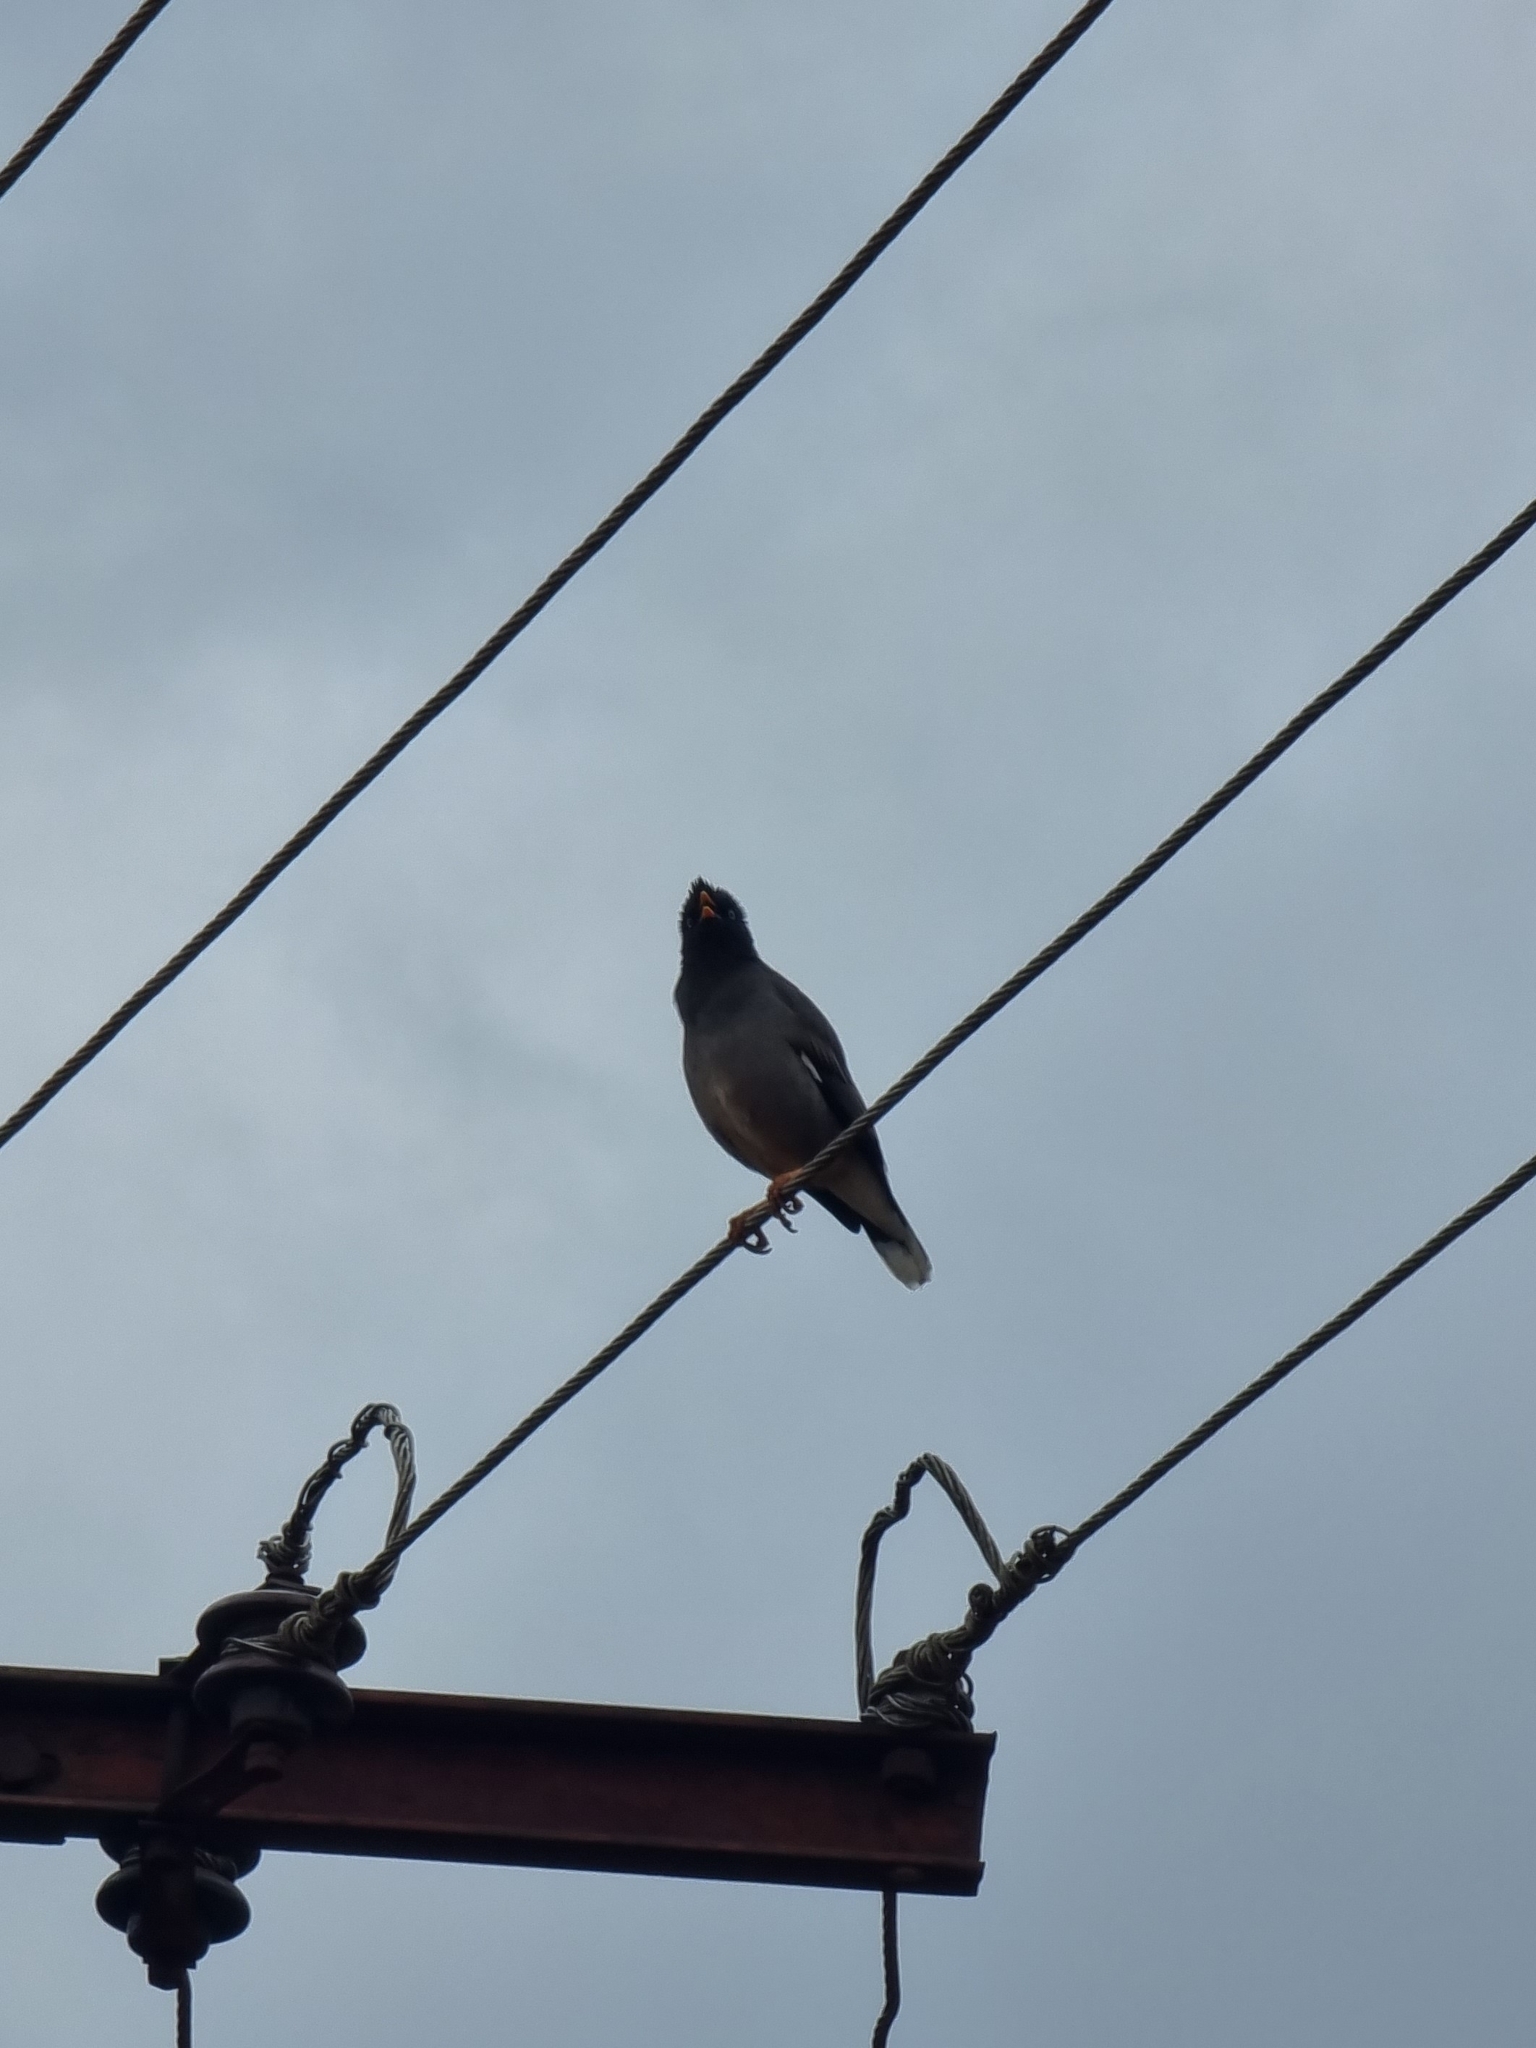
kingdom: Animalia
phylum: Chordata
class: Aves
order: Passeriformes
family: Sturnidae
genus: Acridotheres
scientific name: Acridotheres fuscus
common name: Jungle myna
